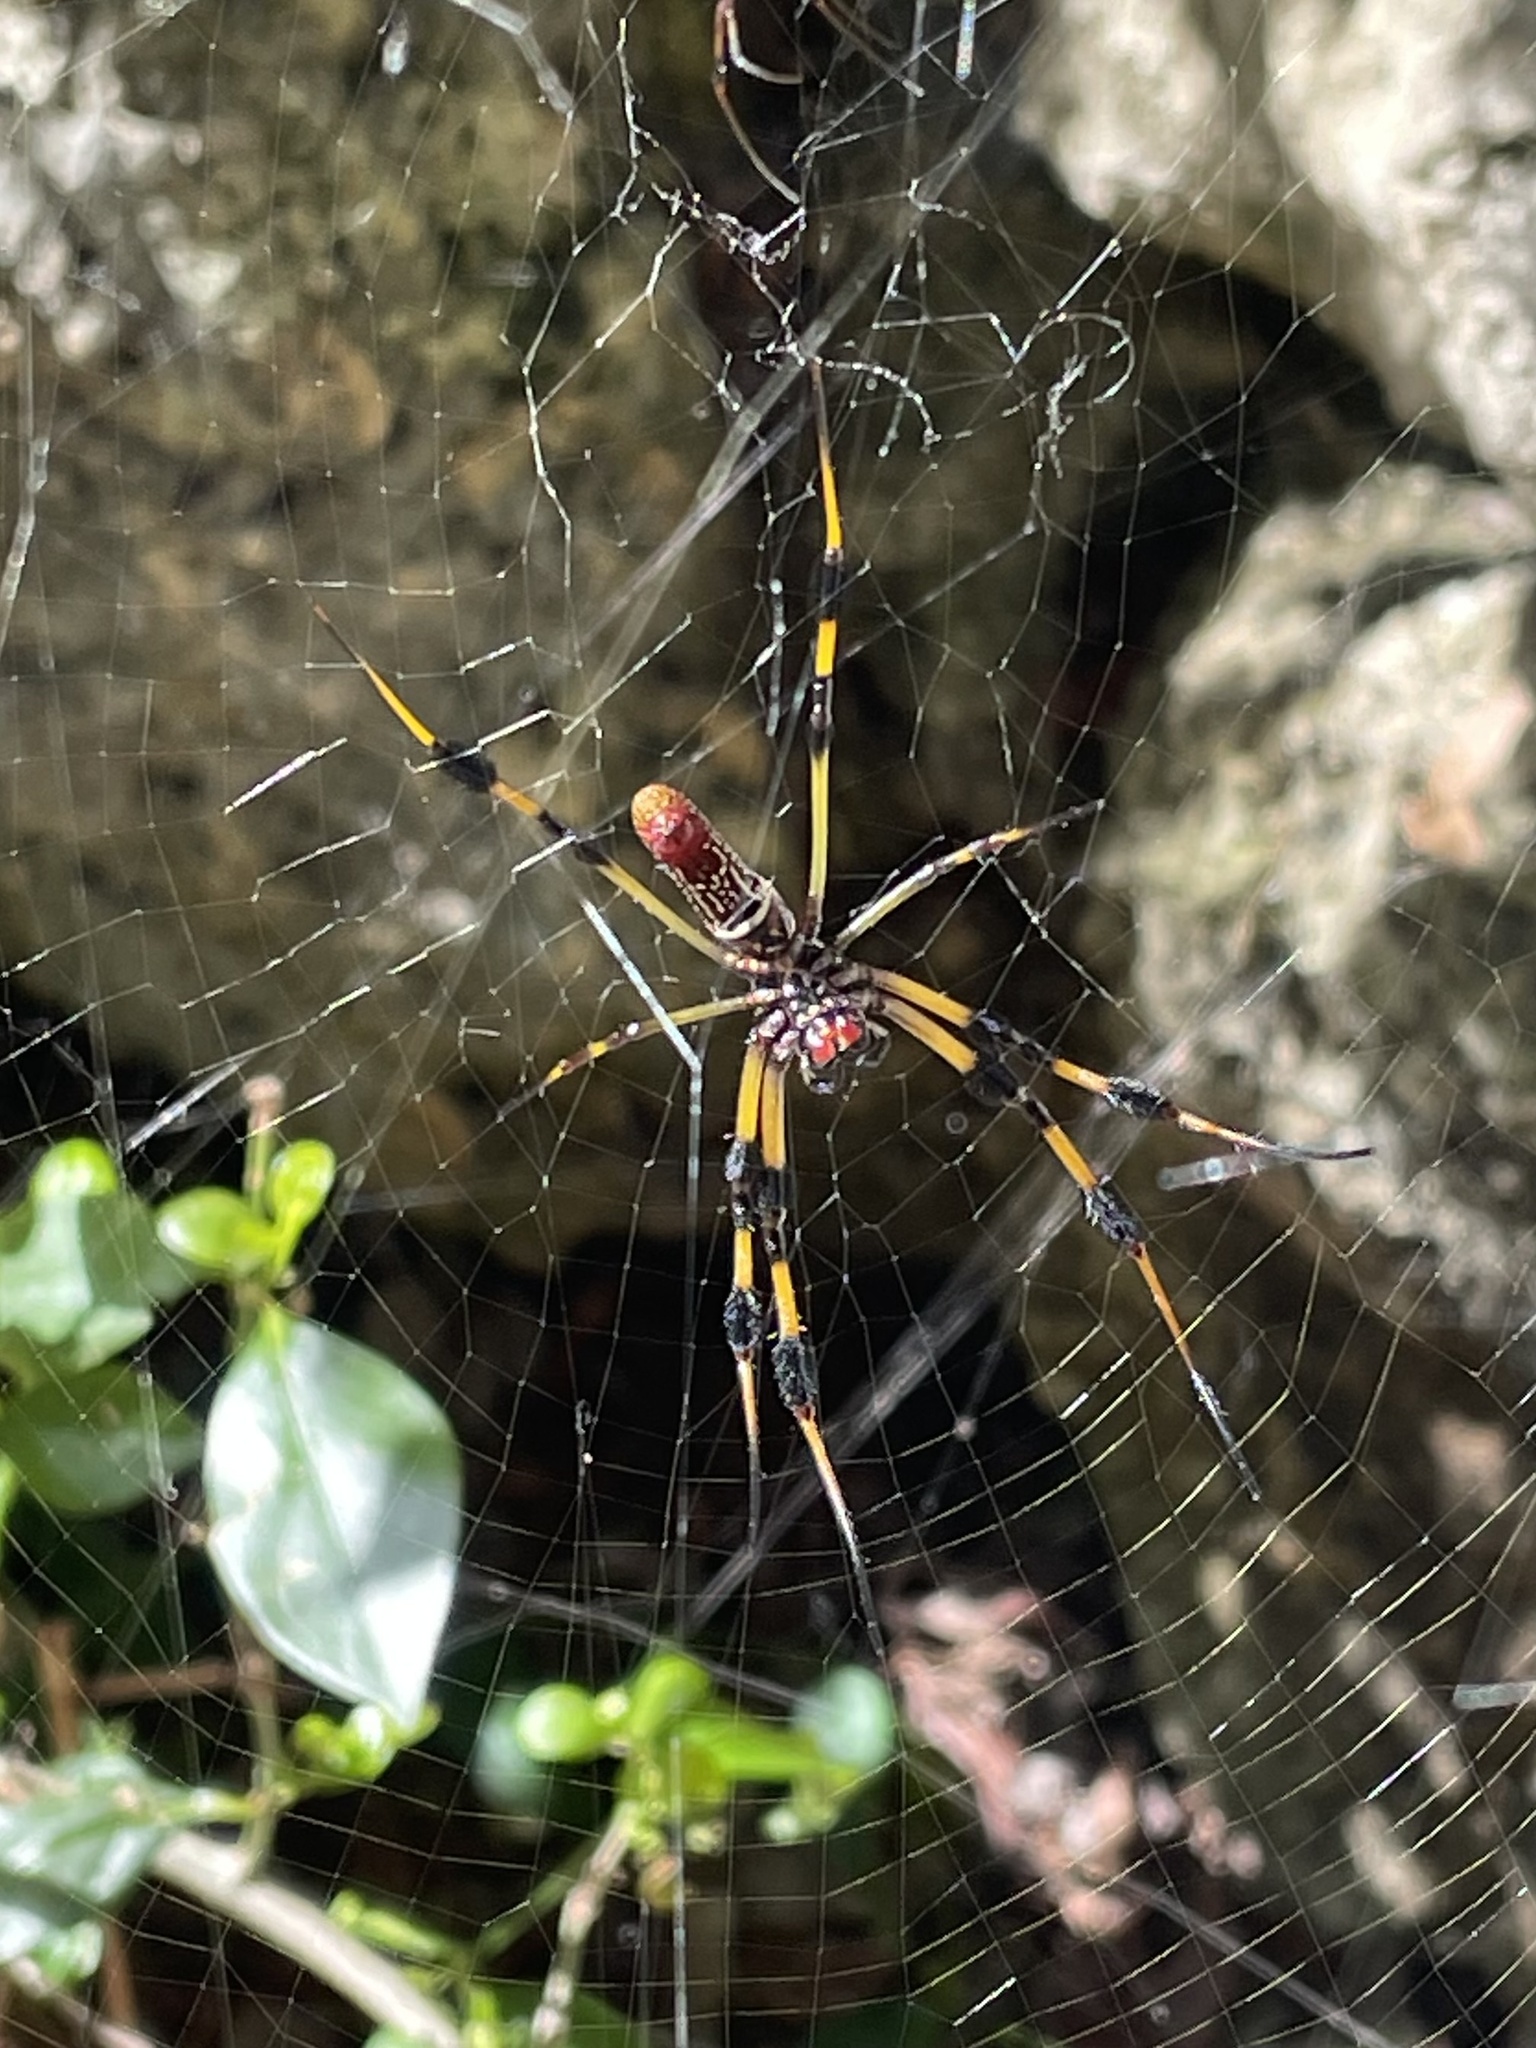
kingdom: Animalia
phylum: Arthropoda
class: Arachnida
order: Araneae
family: Araneidae
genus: Trichonephila
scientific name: Trichonephila clavipes
